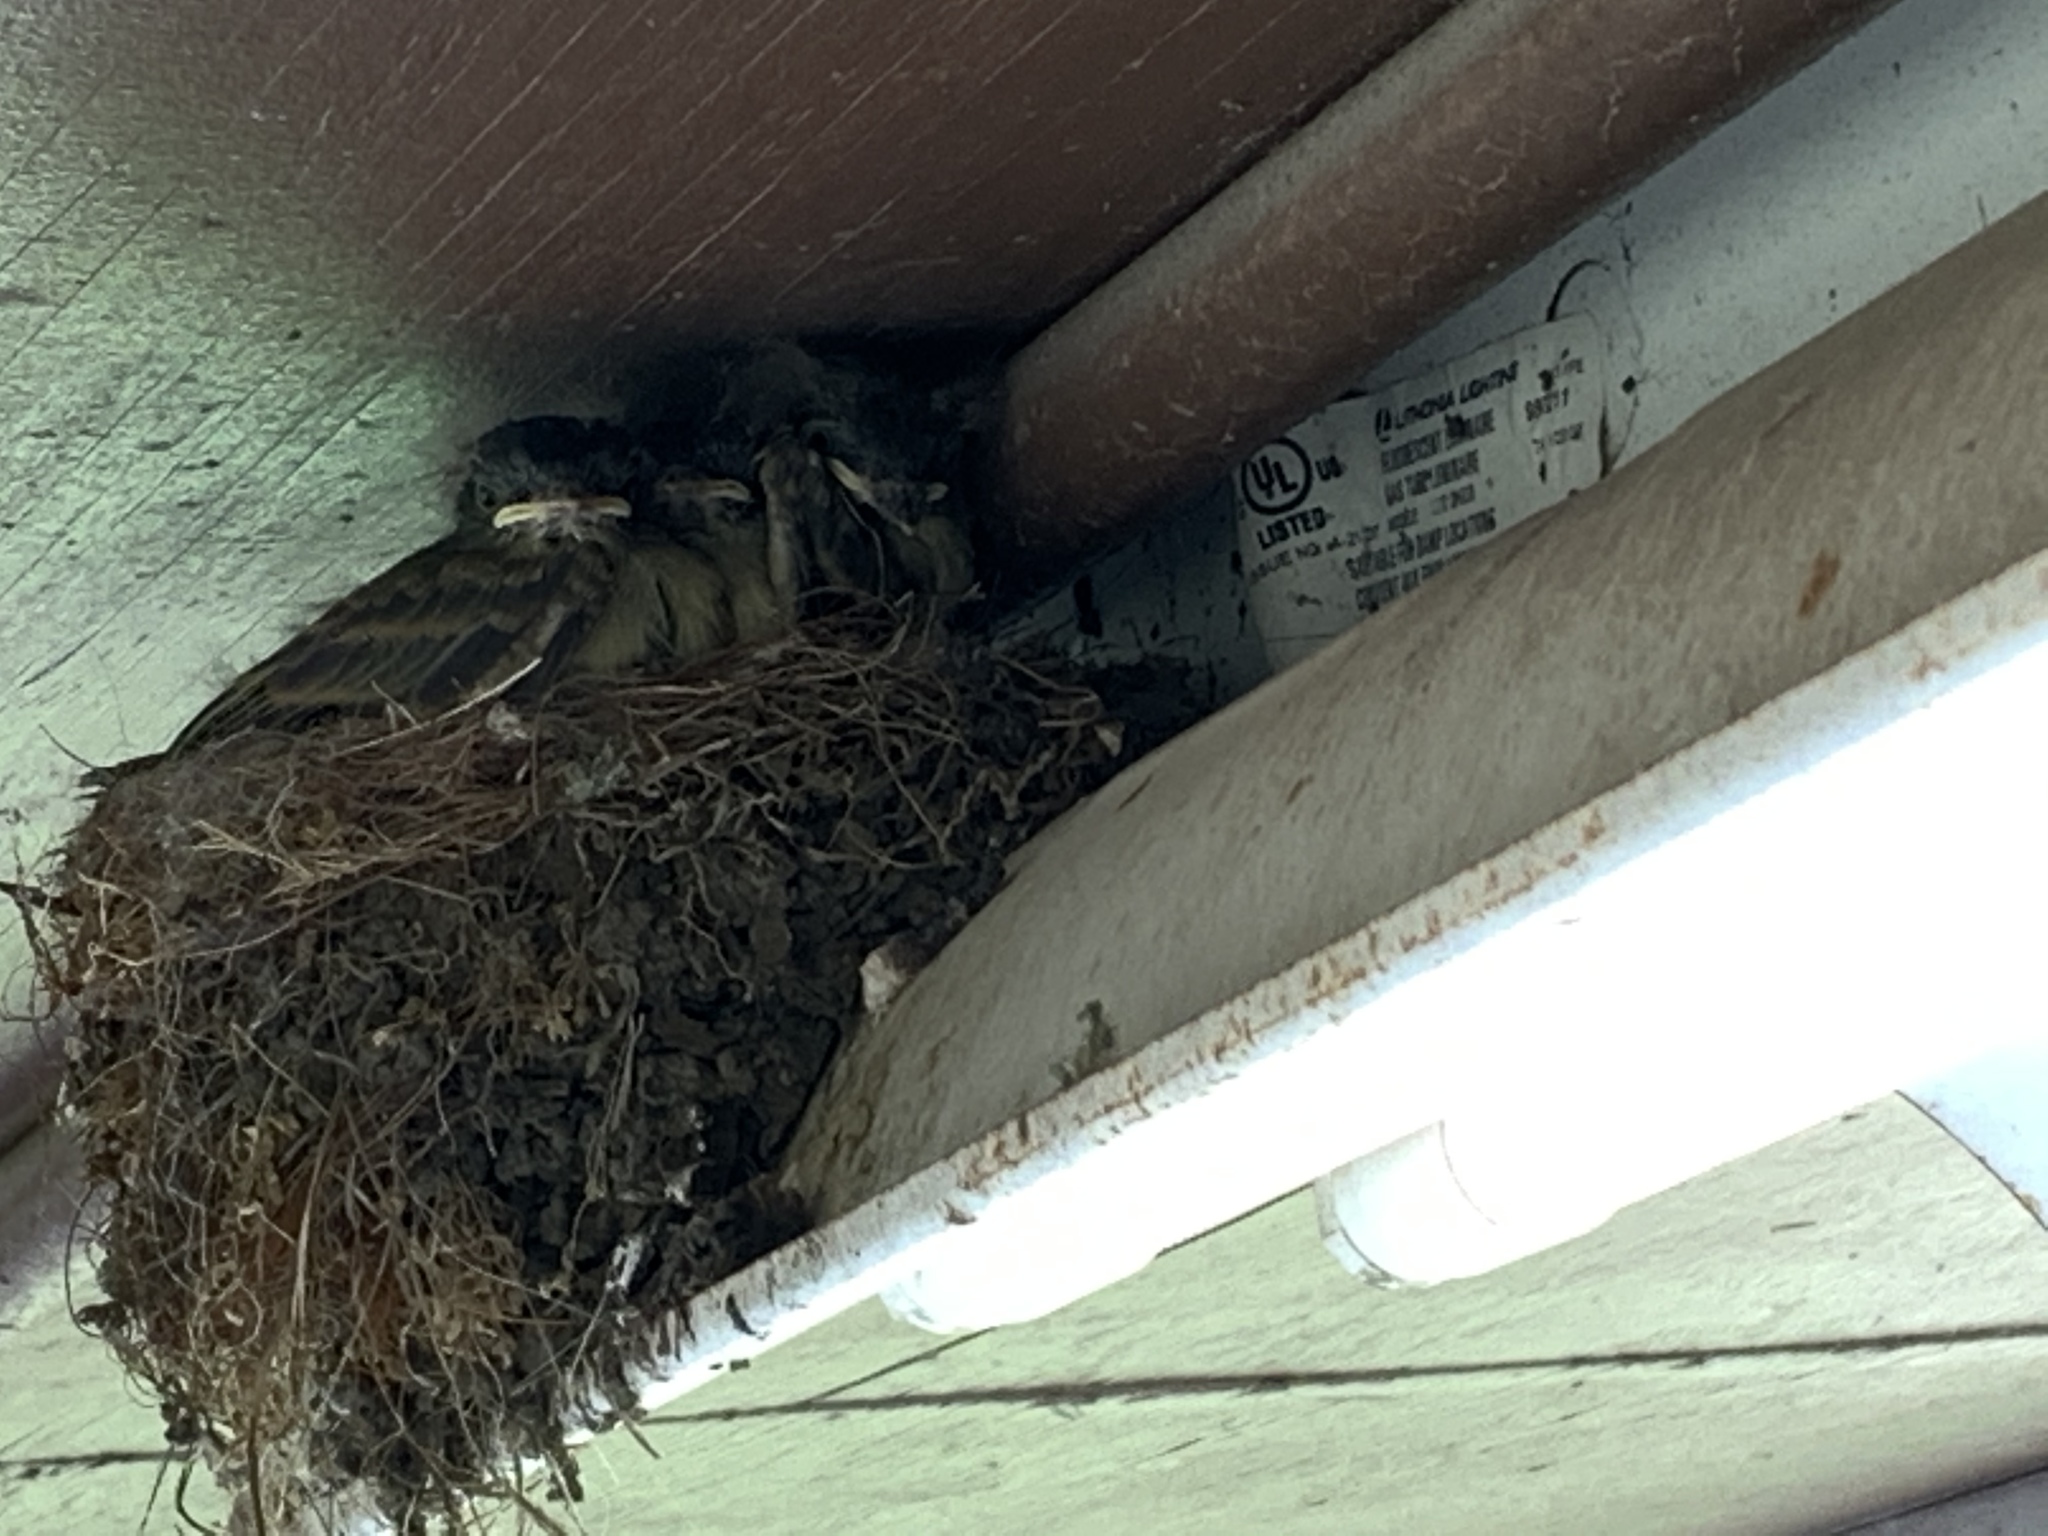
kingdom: Animalia
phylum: Chordata
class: Aves
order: Passeriformes
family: Tyrannidae
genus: Sayornis
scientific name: Sayornis phoebe
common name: Eastern phoebe
